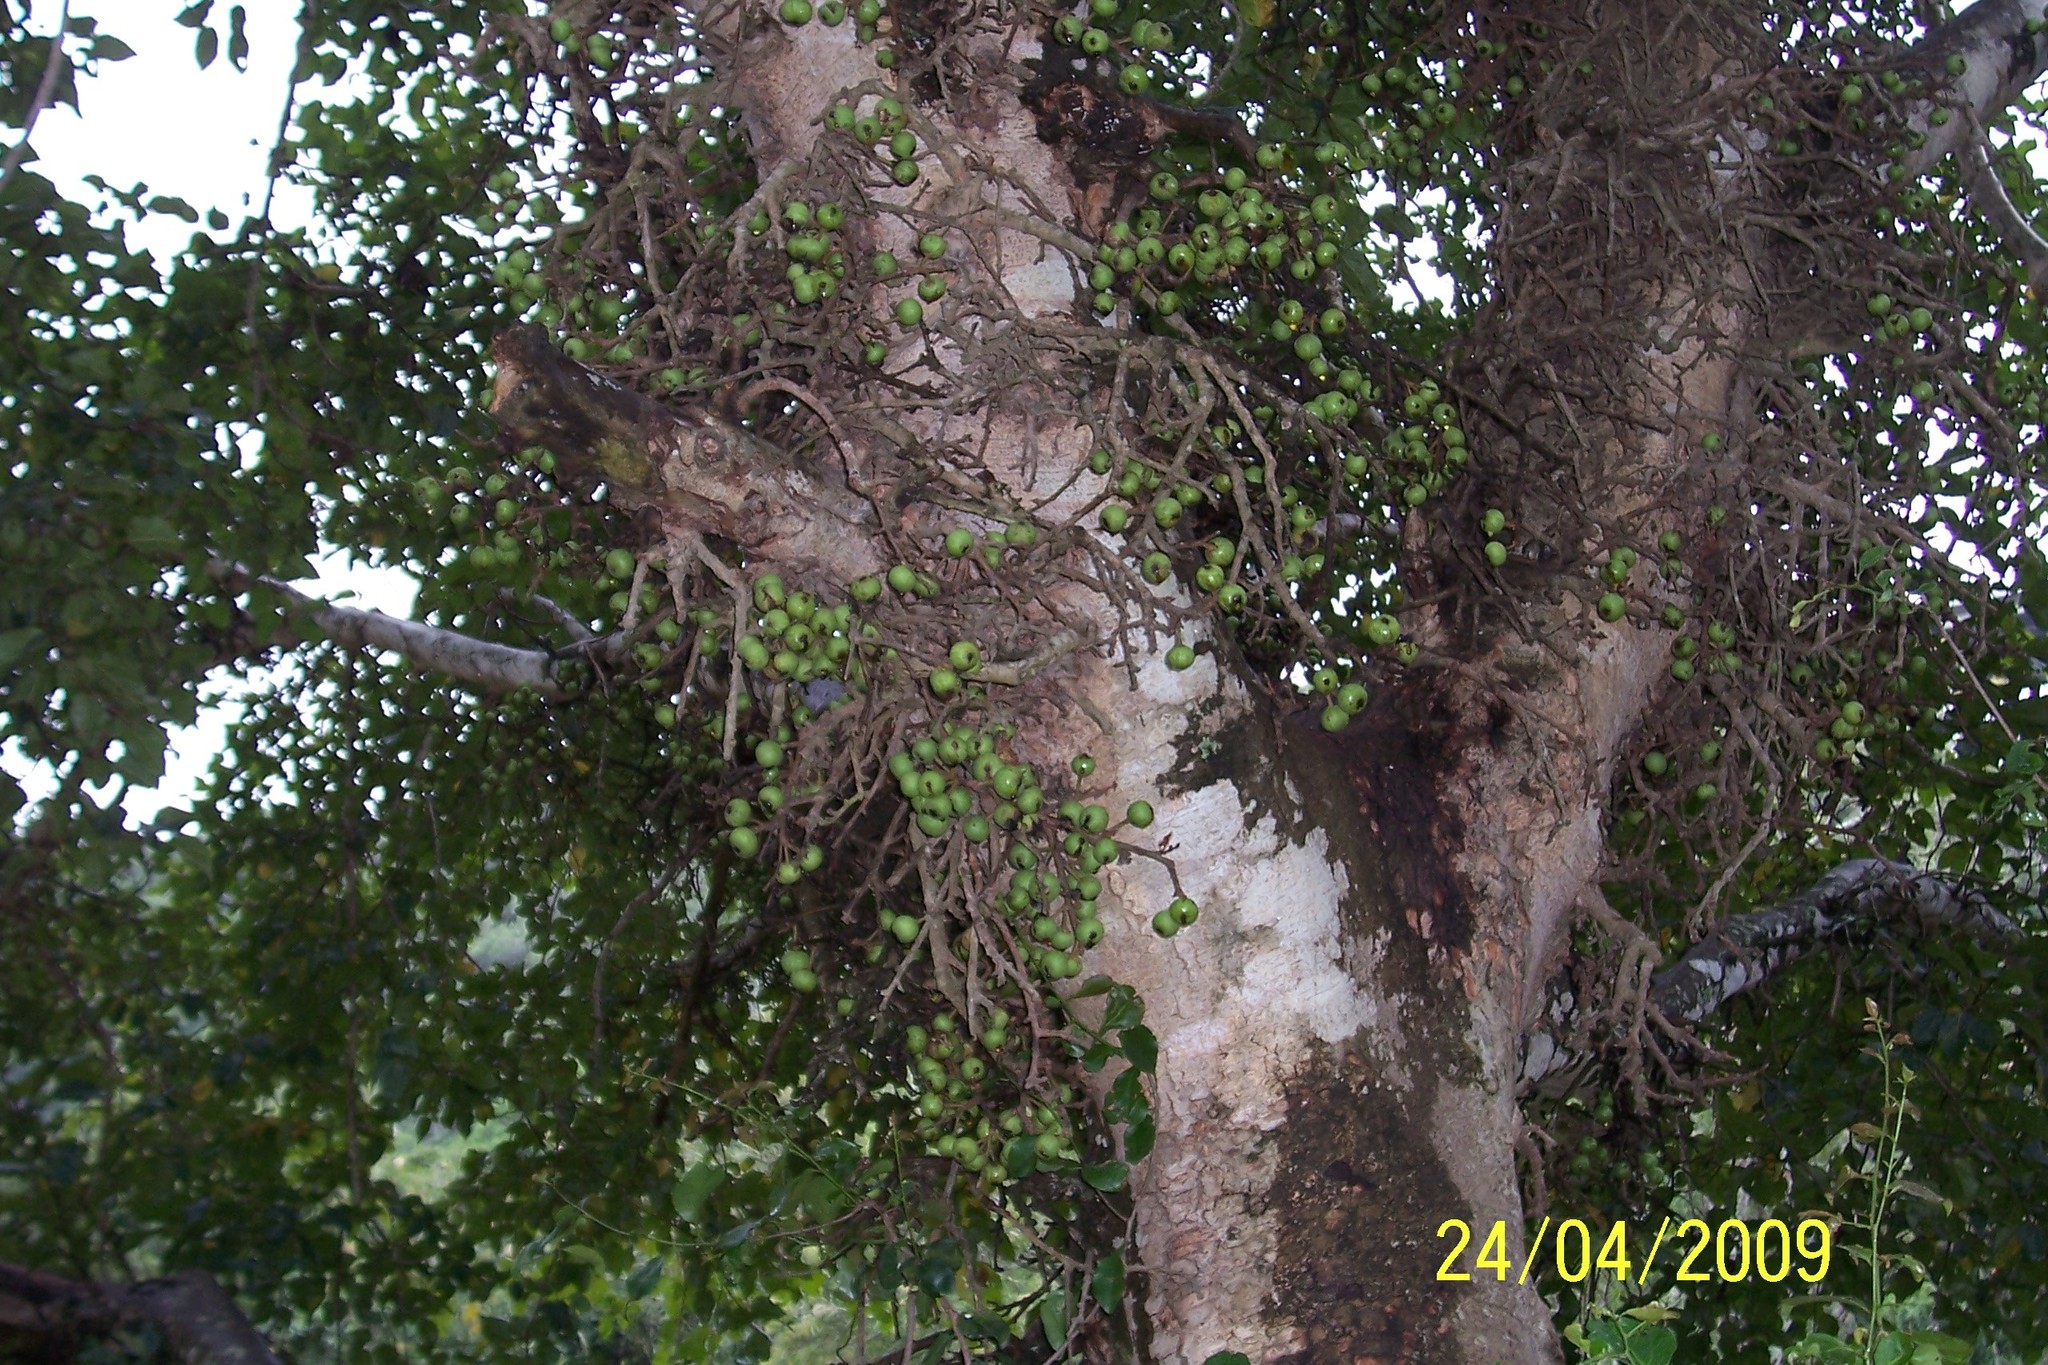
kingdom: Plantae
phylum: Tracheophyta
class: Magnoliopsida
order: Rosales
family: Moraceae
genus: Ficus
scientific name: Ficus sur
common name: Cape fig
